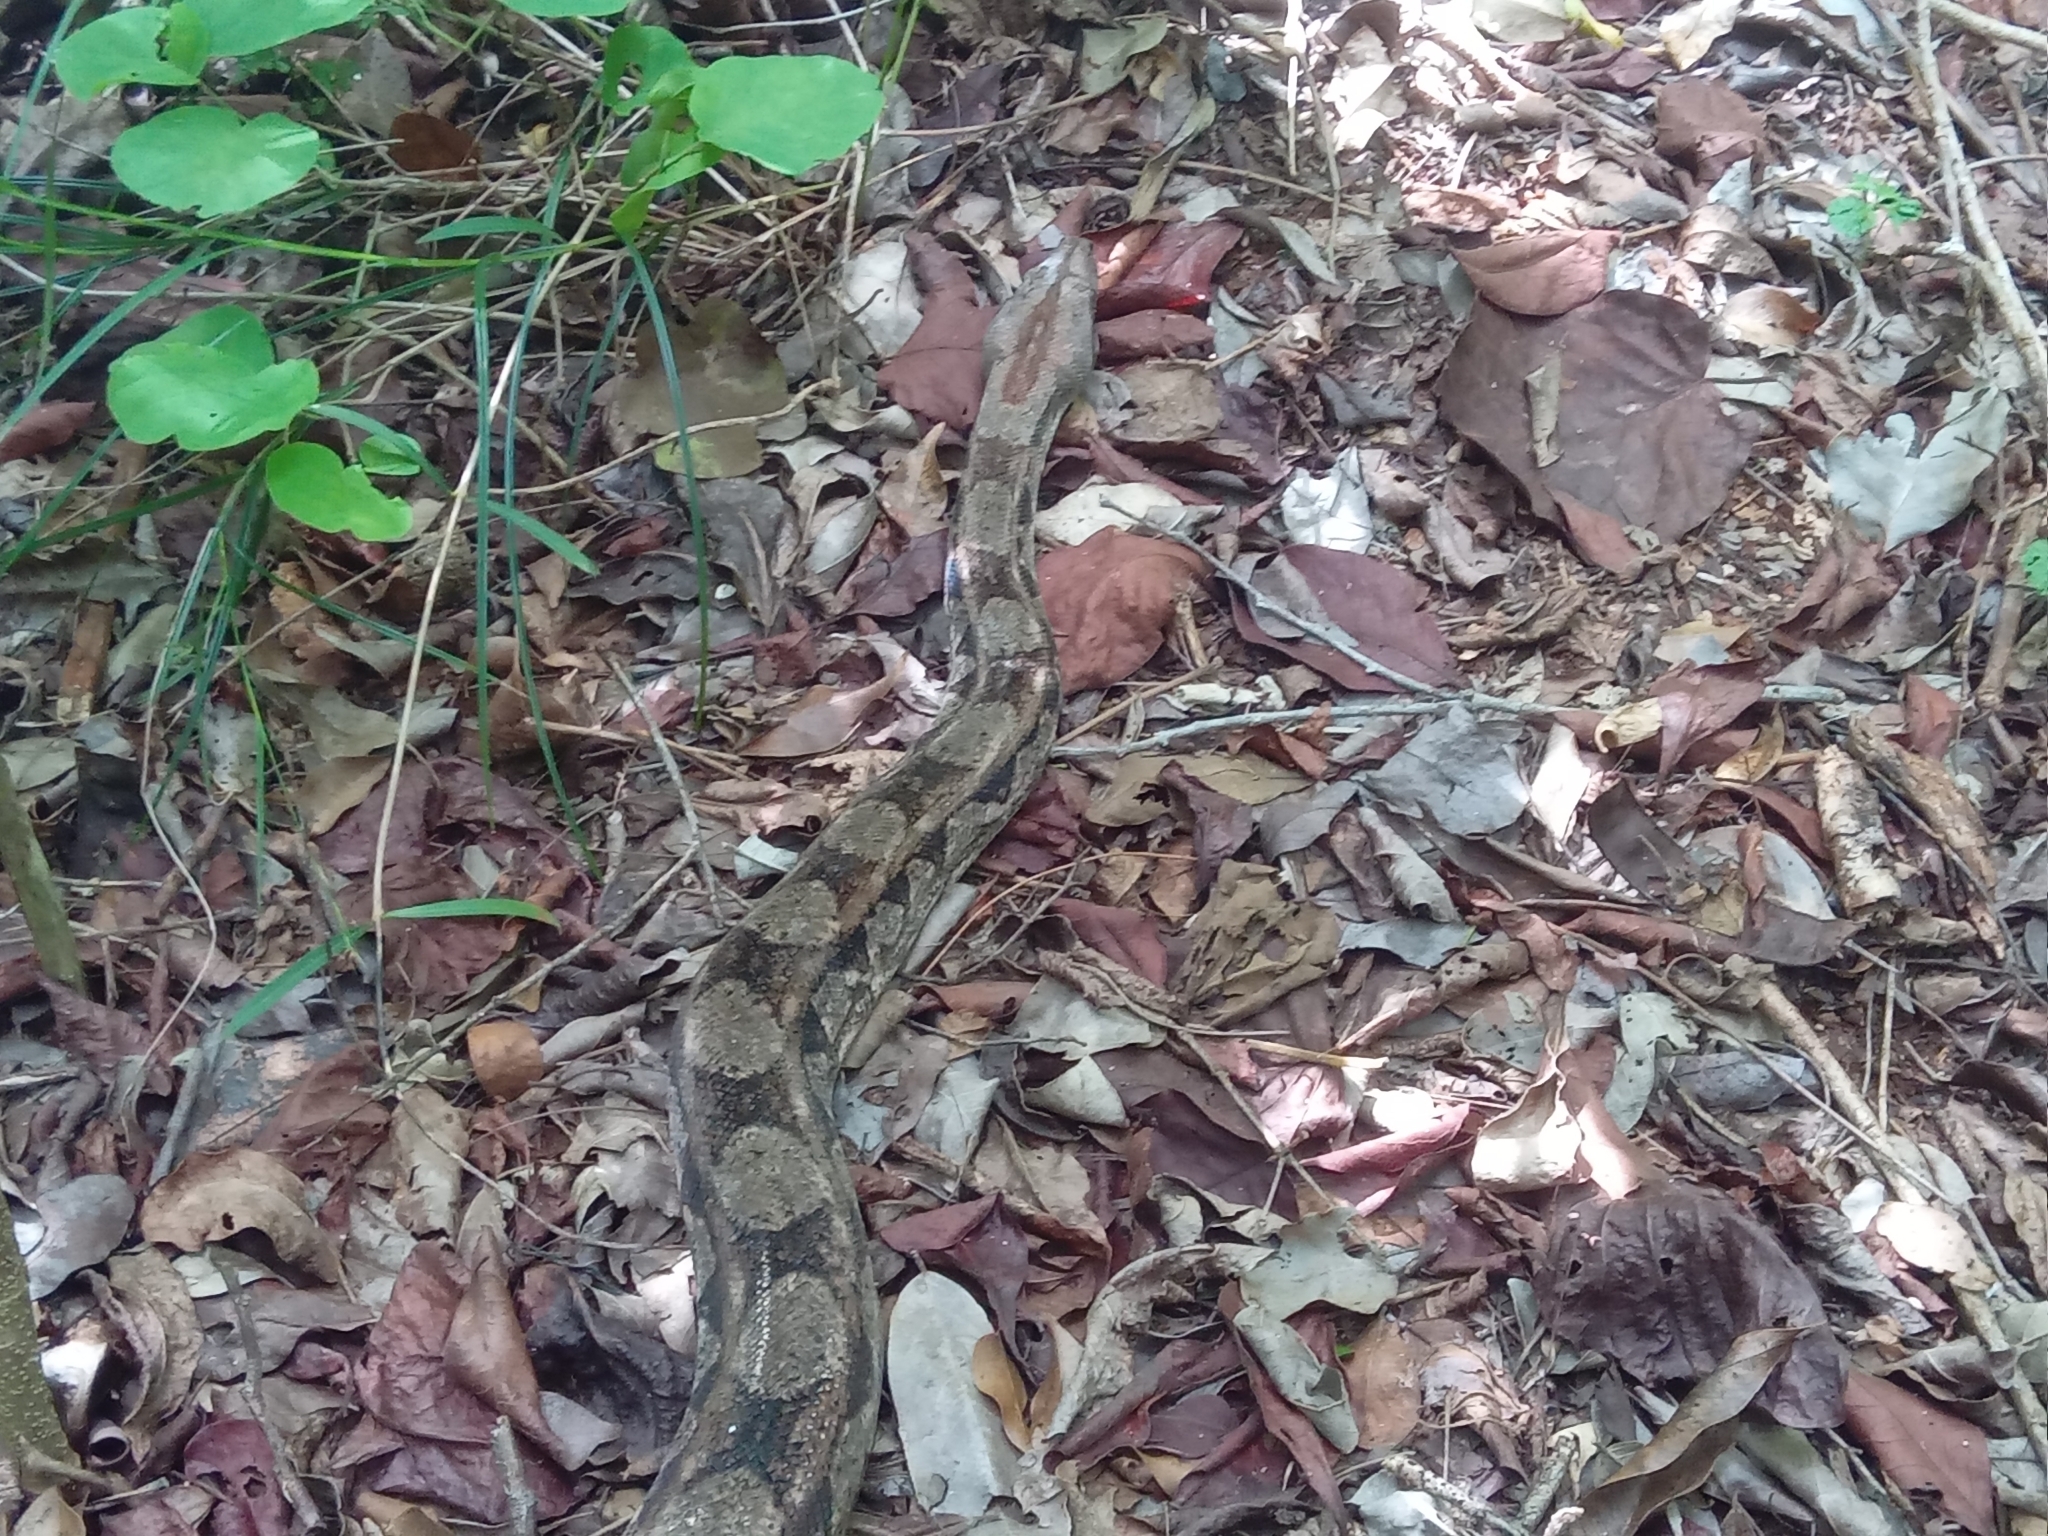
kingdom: Animalia
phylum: Chordata
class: Squamata
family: Boidae
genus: Boa
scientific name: Boa imperator
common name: Central american boa
